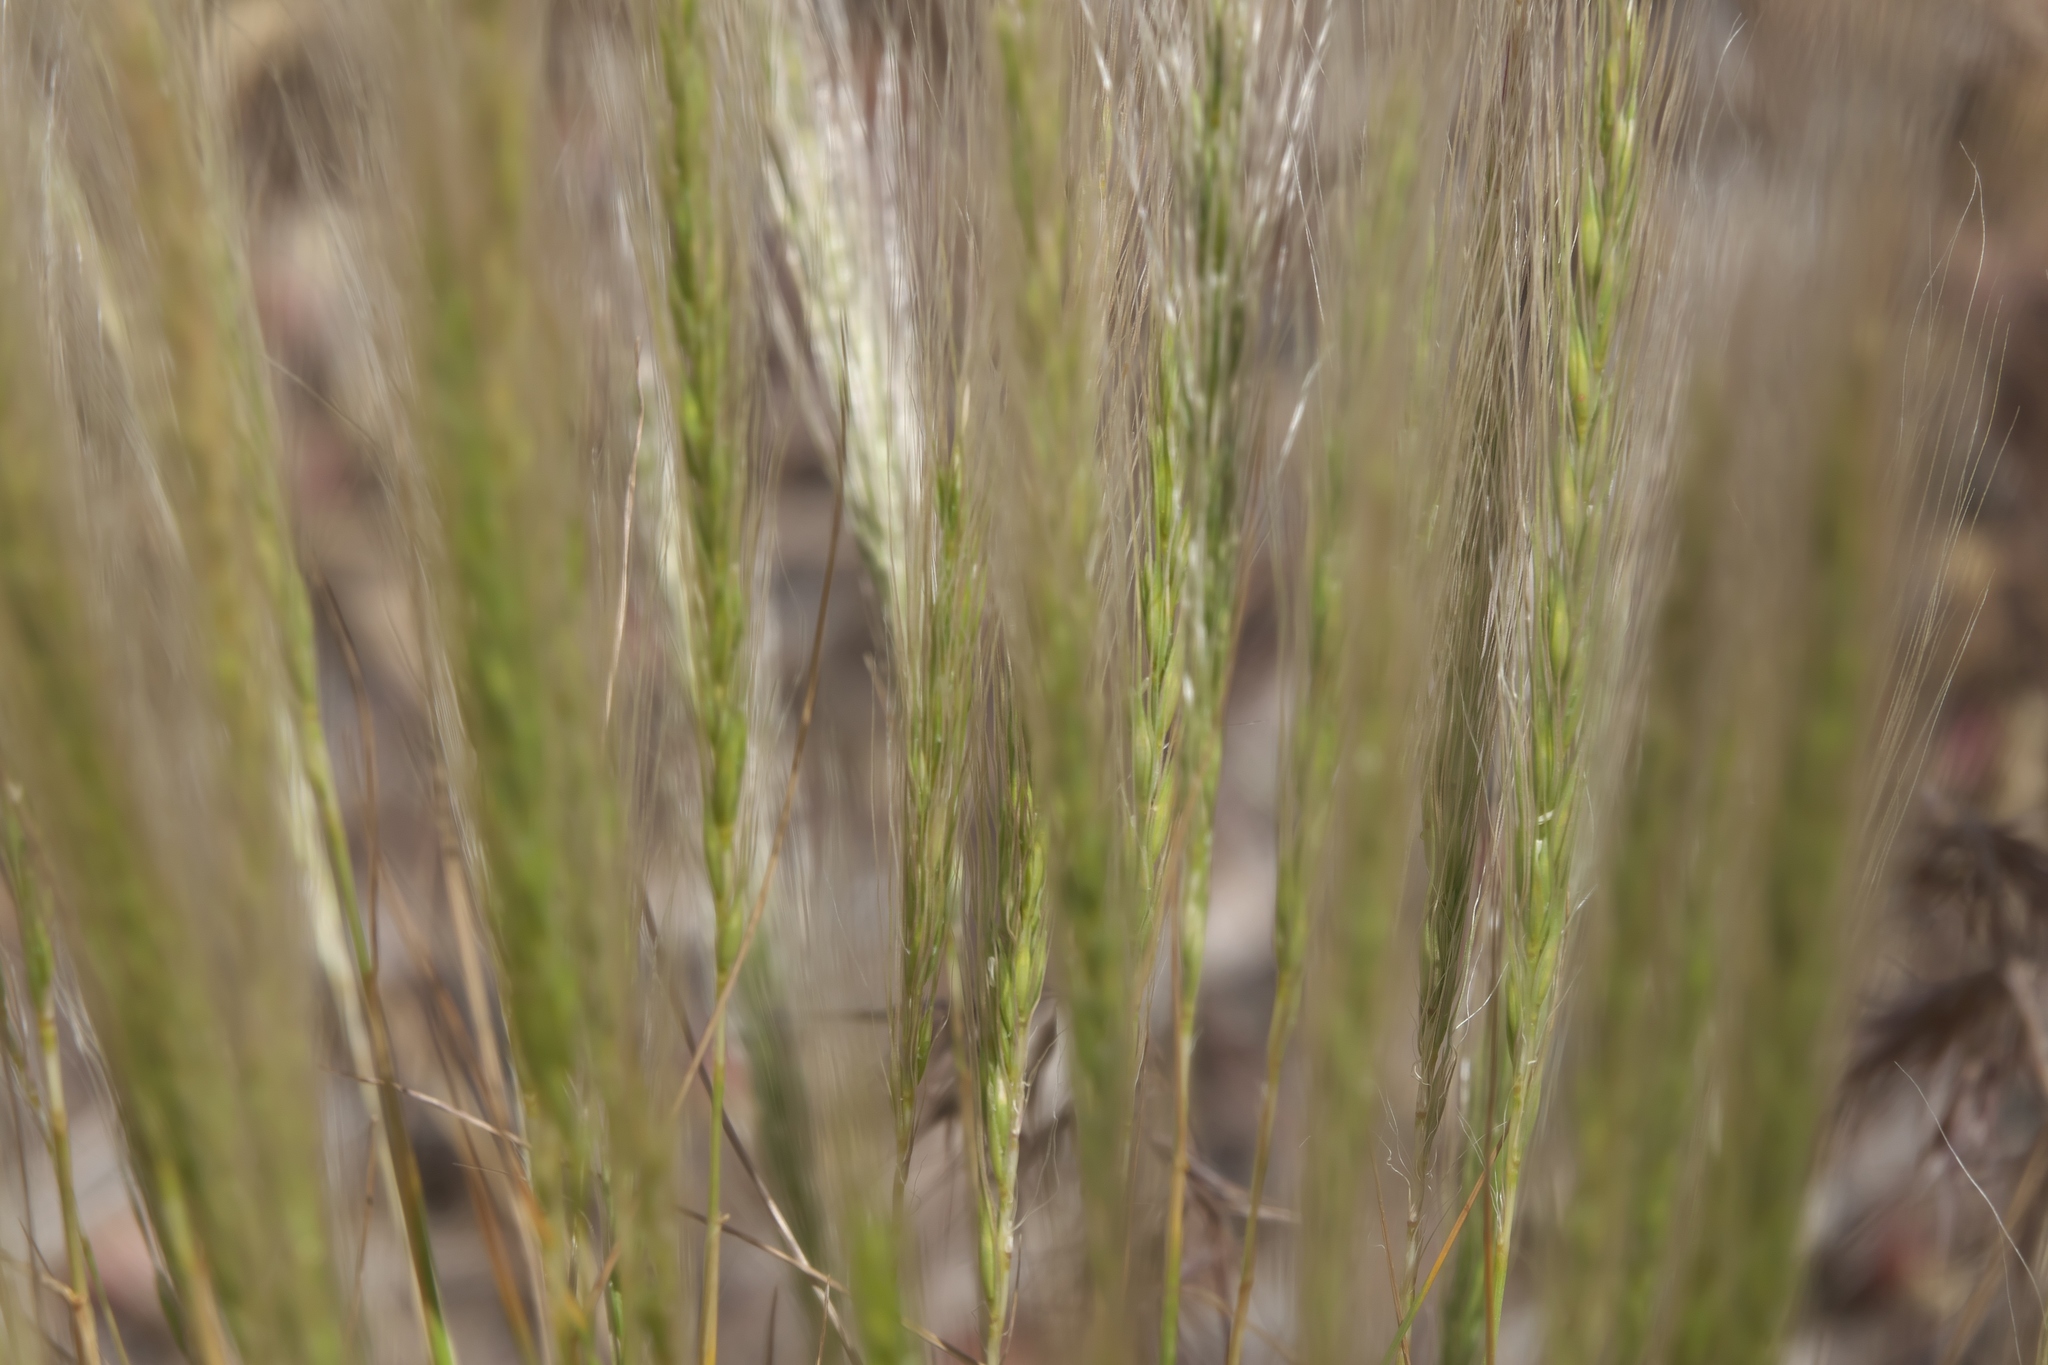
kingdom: Plantae
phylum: Tracheophyta
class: Liliopsida
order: Poales
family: Poaceae
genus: Elymus
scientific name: Elymus elymoides
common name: Bottlebrush squirreltail
